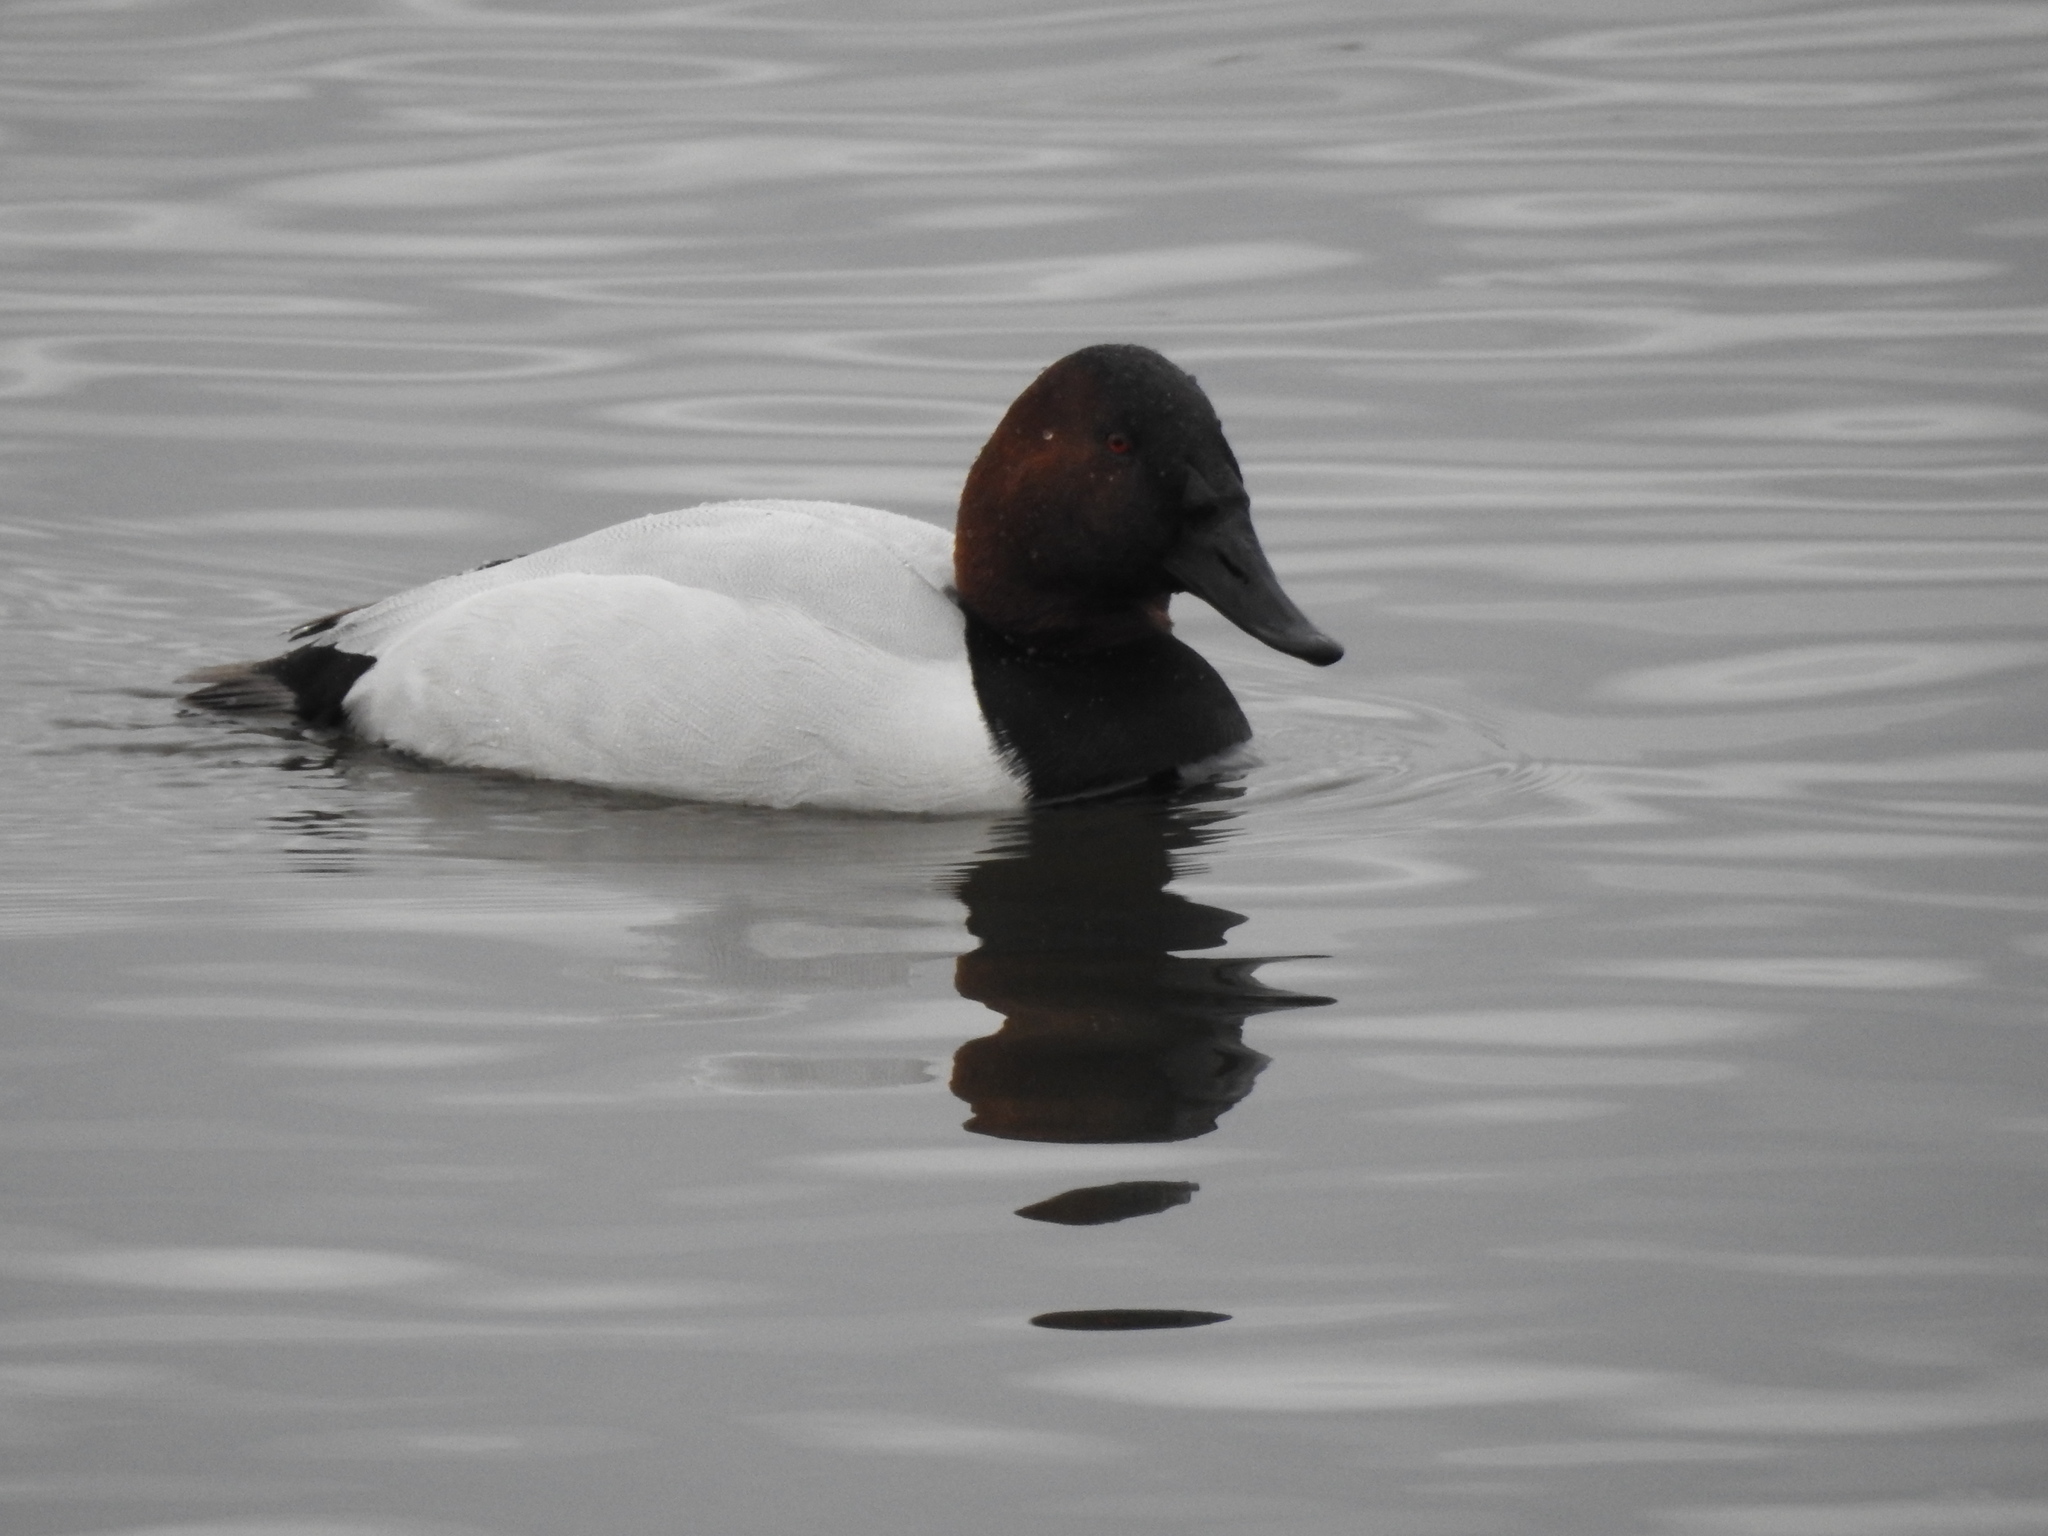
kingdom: Animalia
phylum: Chordata
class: Aves
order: Anseriformes
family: Anatidae
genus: Aythya
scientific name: Aythya valisineria
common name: Canvasback
